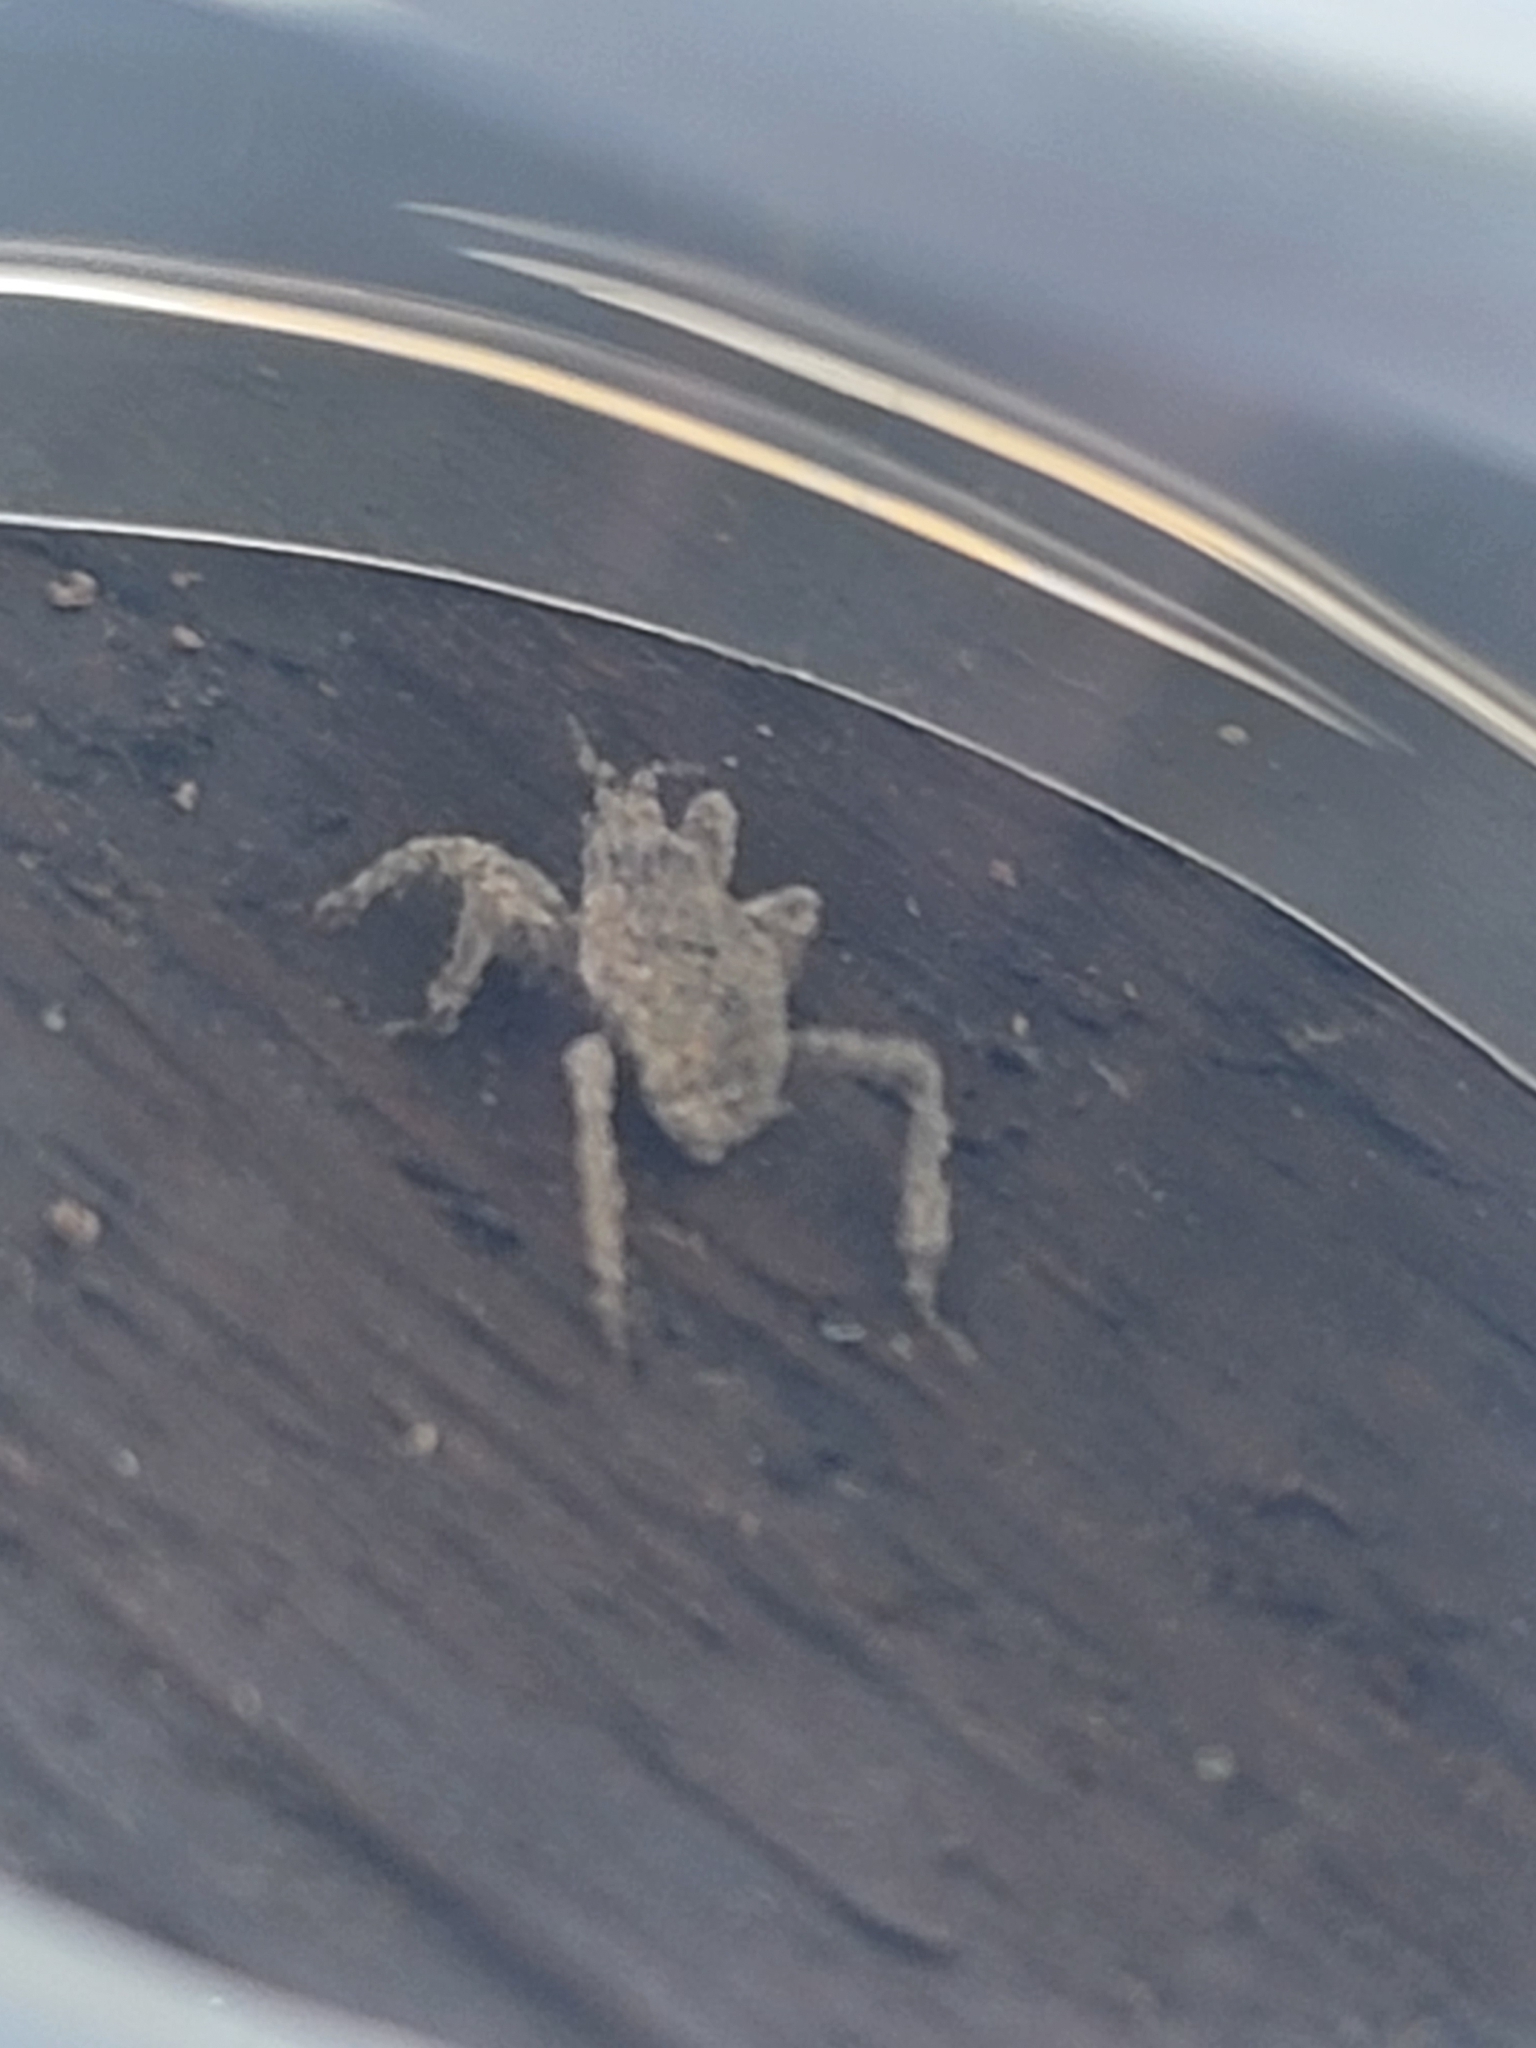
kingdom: Animalia
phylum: Arthropoda
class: Insecta
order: Hemiptera
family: Reduviidae
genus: Reduvius
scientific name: Reduvius personatus
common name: Masked hunter
